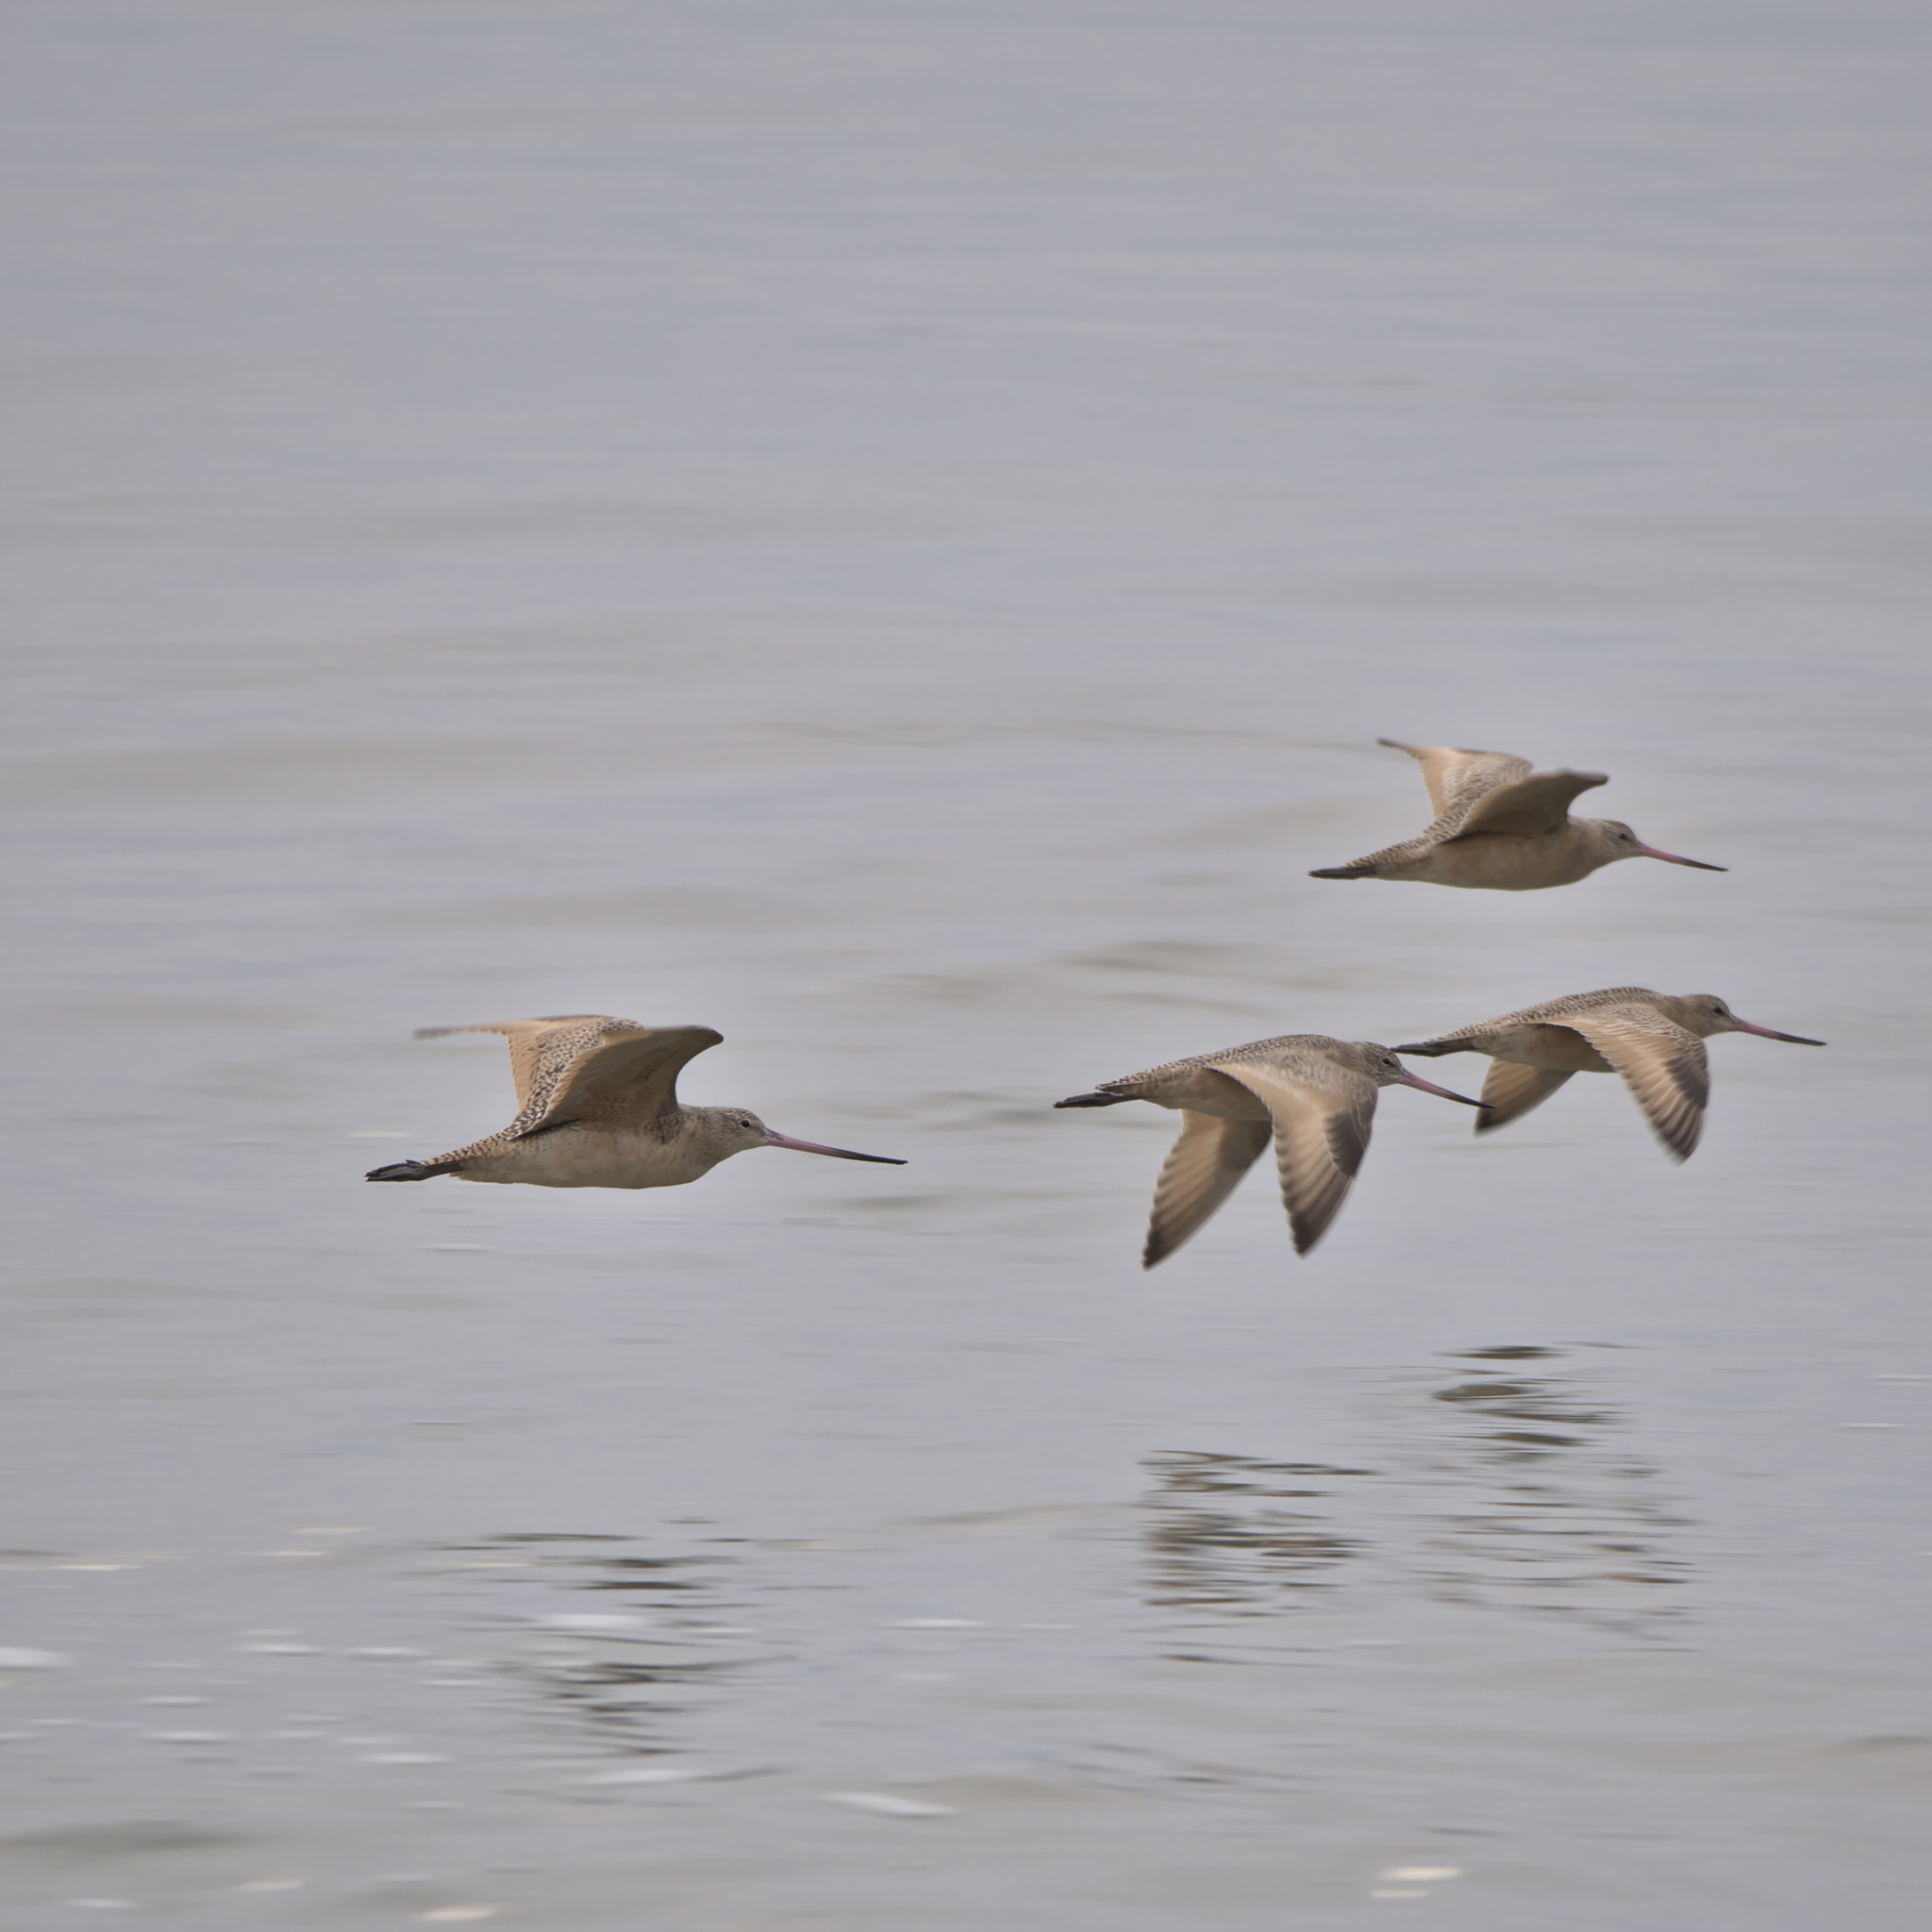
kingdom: Animalia
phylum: Chordata
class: Aves
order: Charadriiformes
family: Scolopacidae
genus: Limosa
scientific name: Limosa fedoa
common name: Marbled godwit
